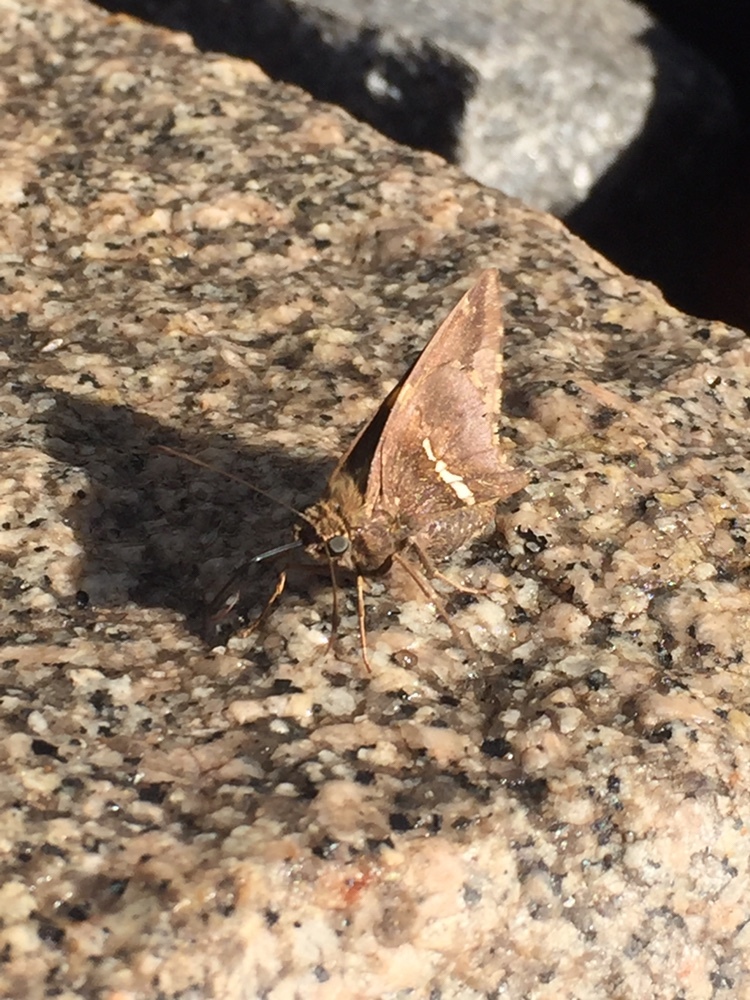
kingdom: Animalia
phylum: Arthropoda
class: Insecta
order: Lepidoptera
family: Hesperiidae
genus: Epargyreus
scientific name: Epargyreus tmolis
